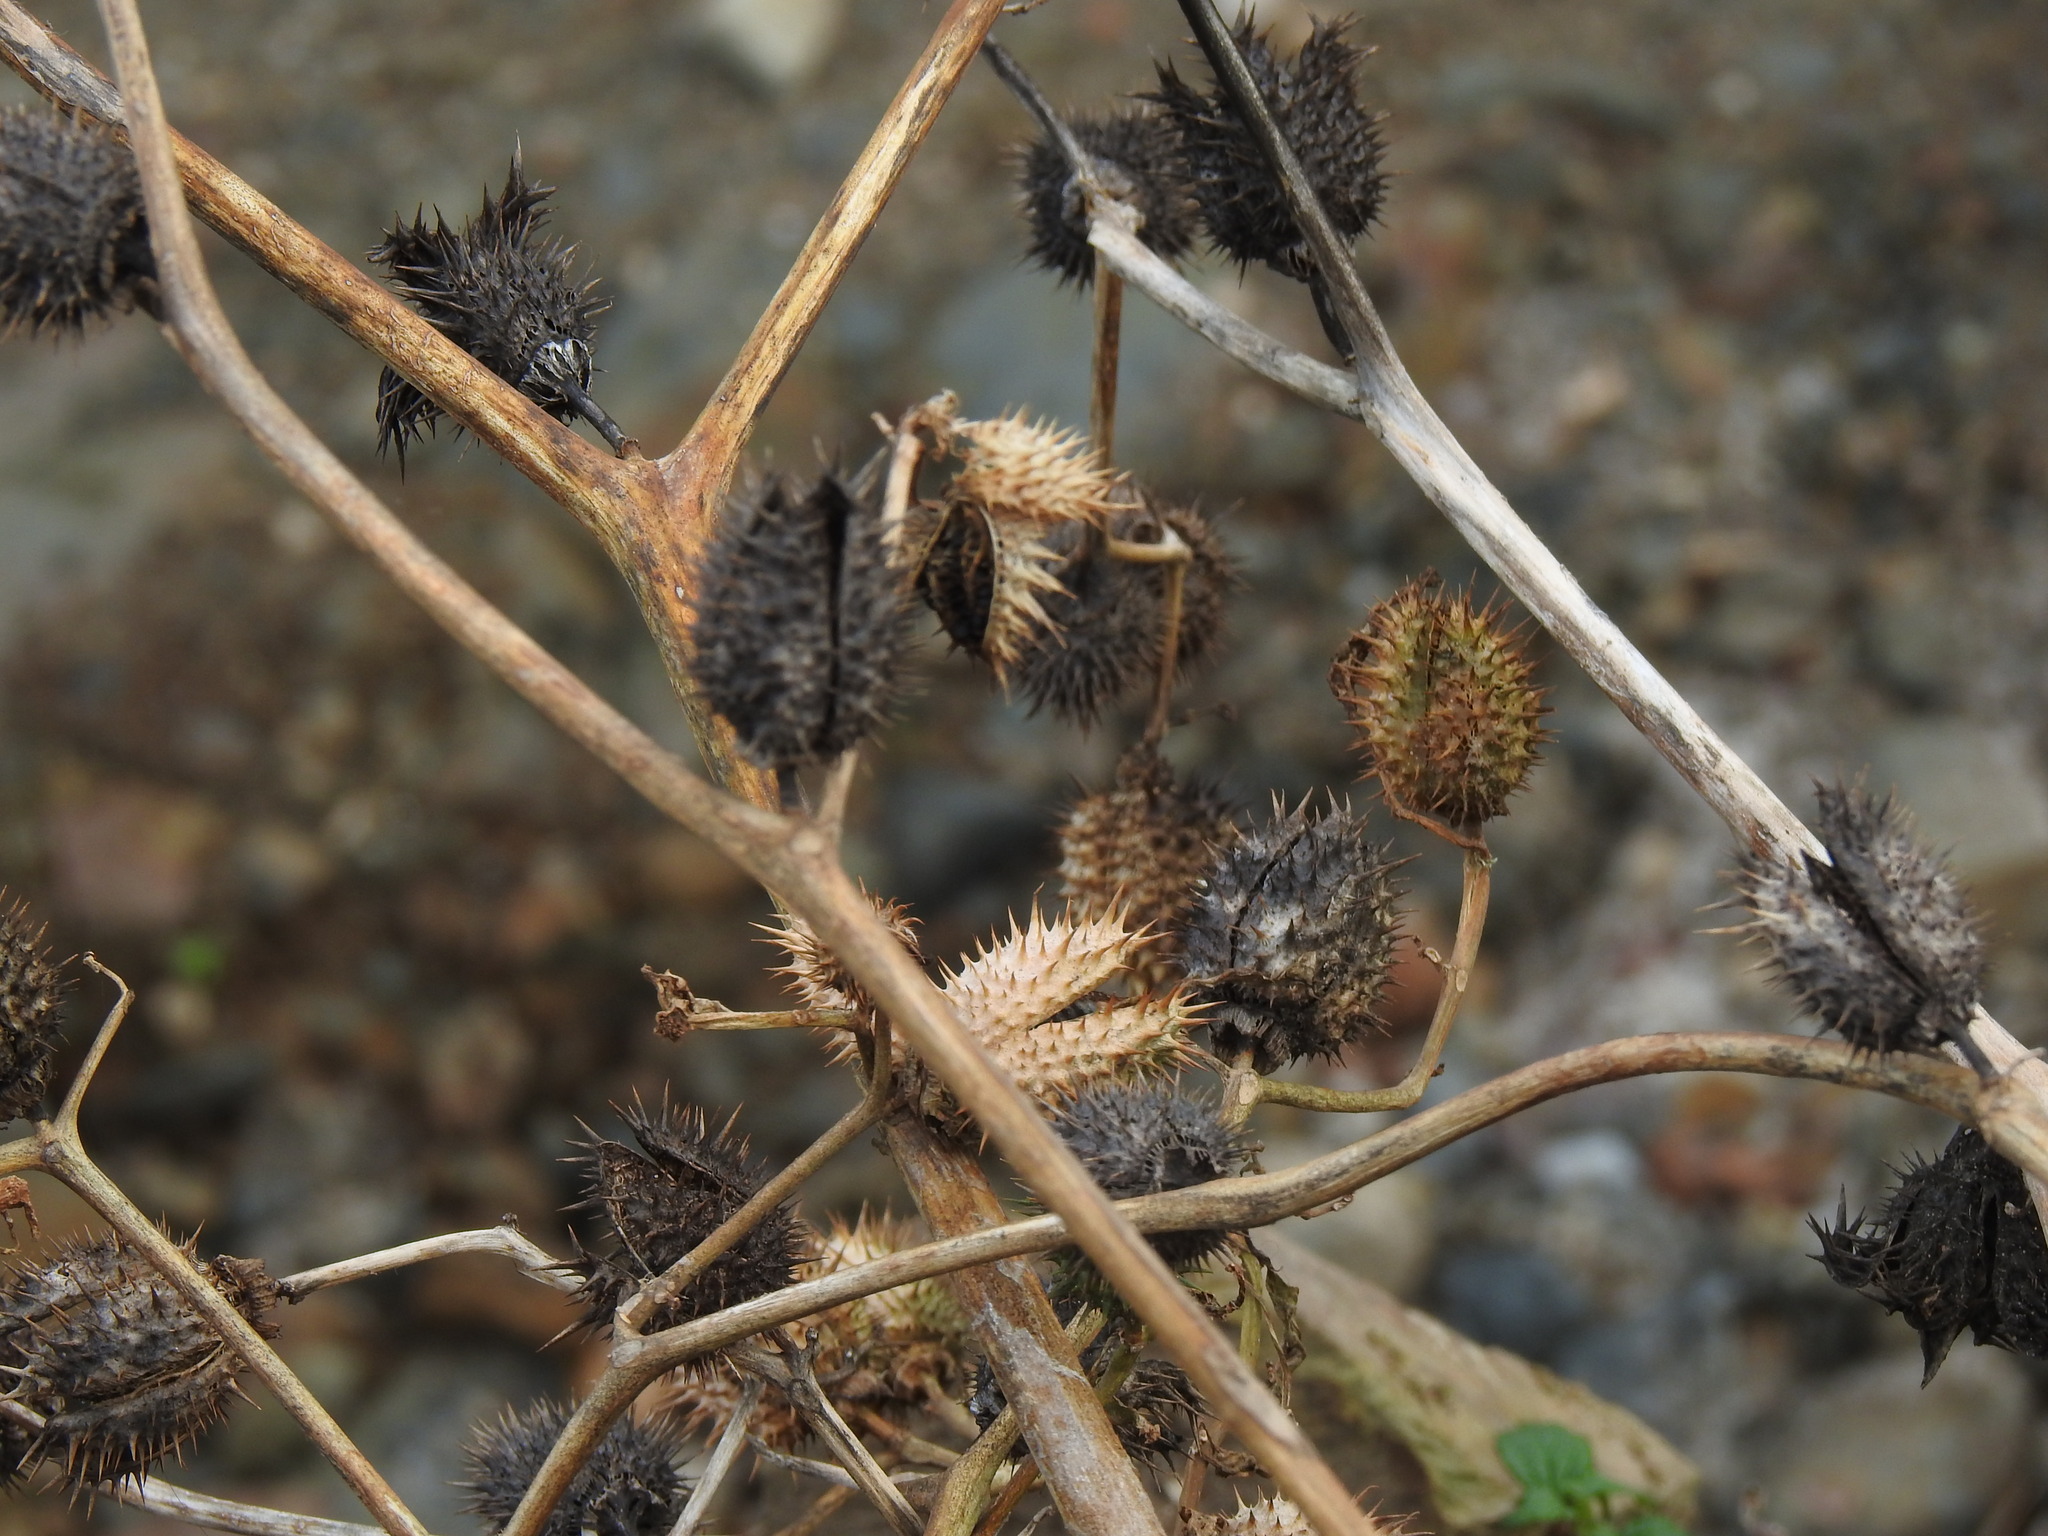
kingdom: Plantae
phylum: Tracheophyta
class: Magnoliopsida
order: Solanales
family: Solanaceae
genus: Datura
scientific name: Datura stramonium
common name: Thorn-apple
